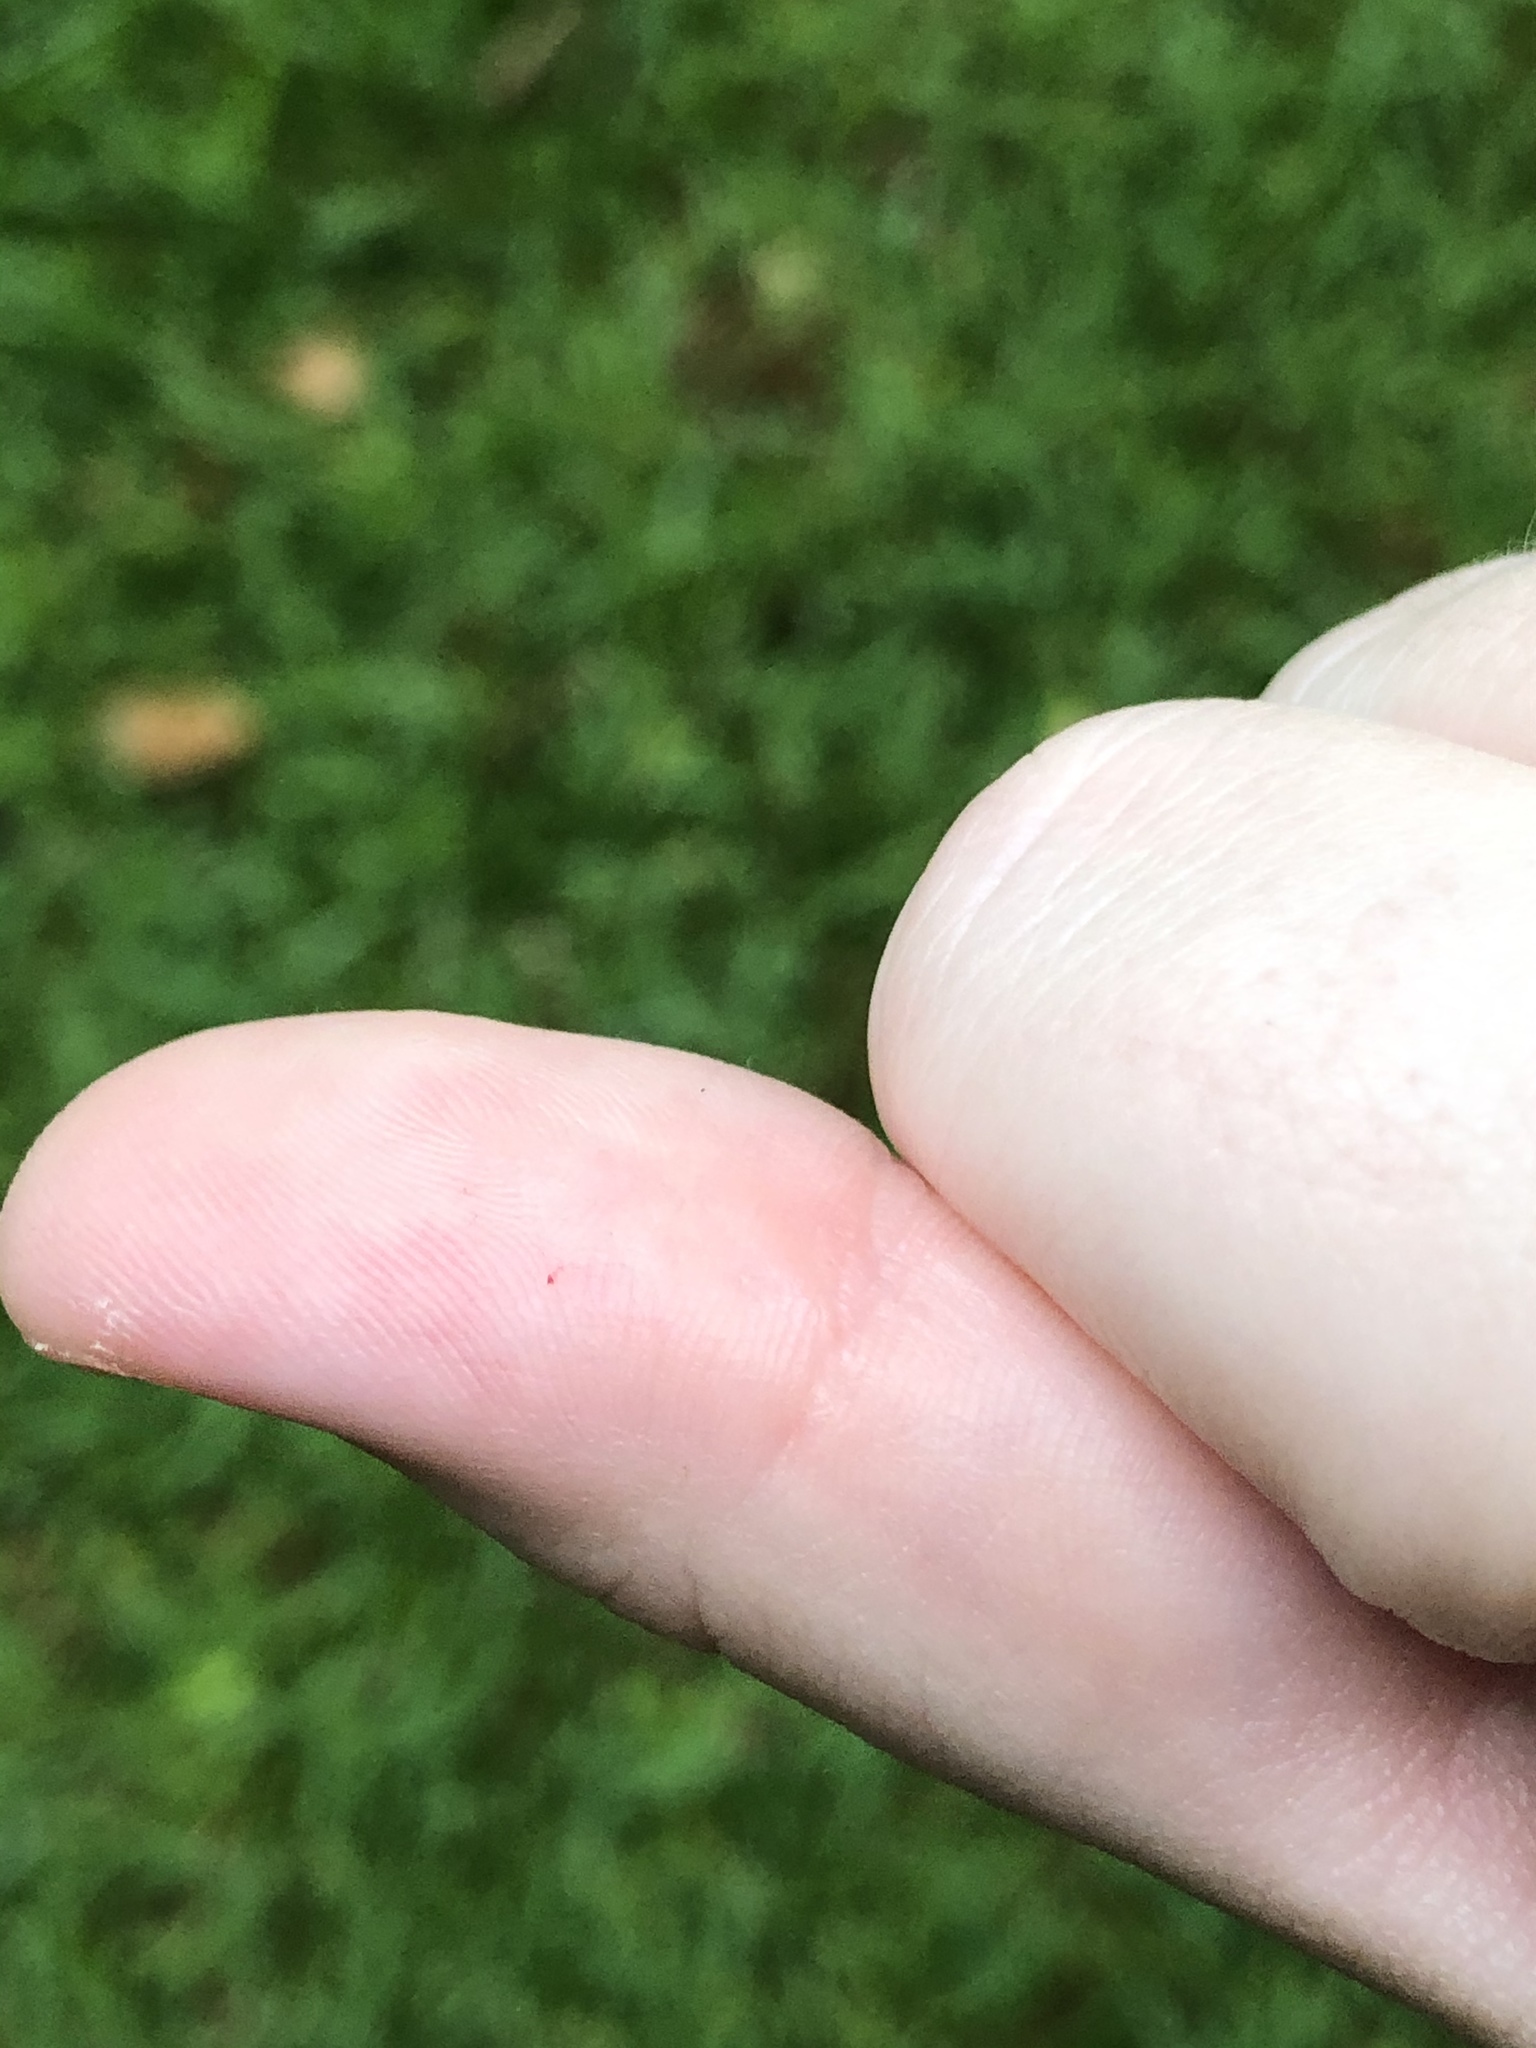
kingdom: Animalia
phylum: Chordata
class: Squamata
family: Colubridae
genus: Pantherophis
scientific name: Pantherophis obsoletus
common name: Black rat snake
